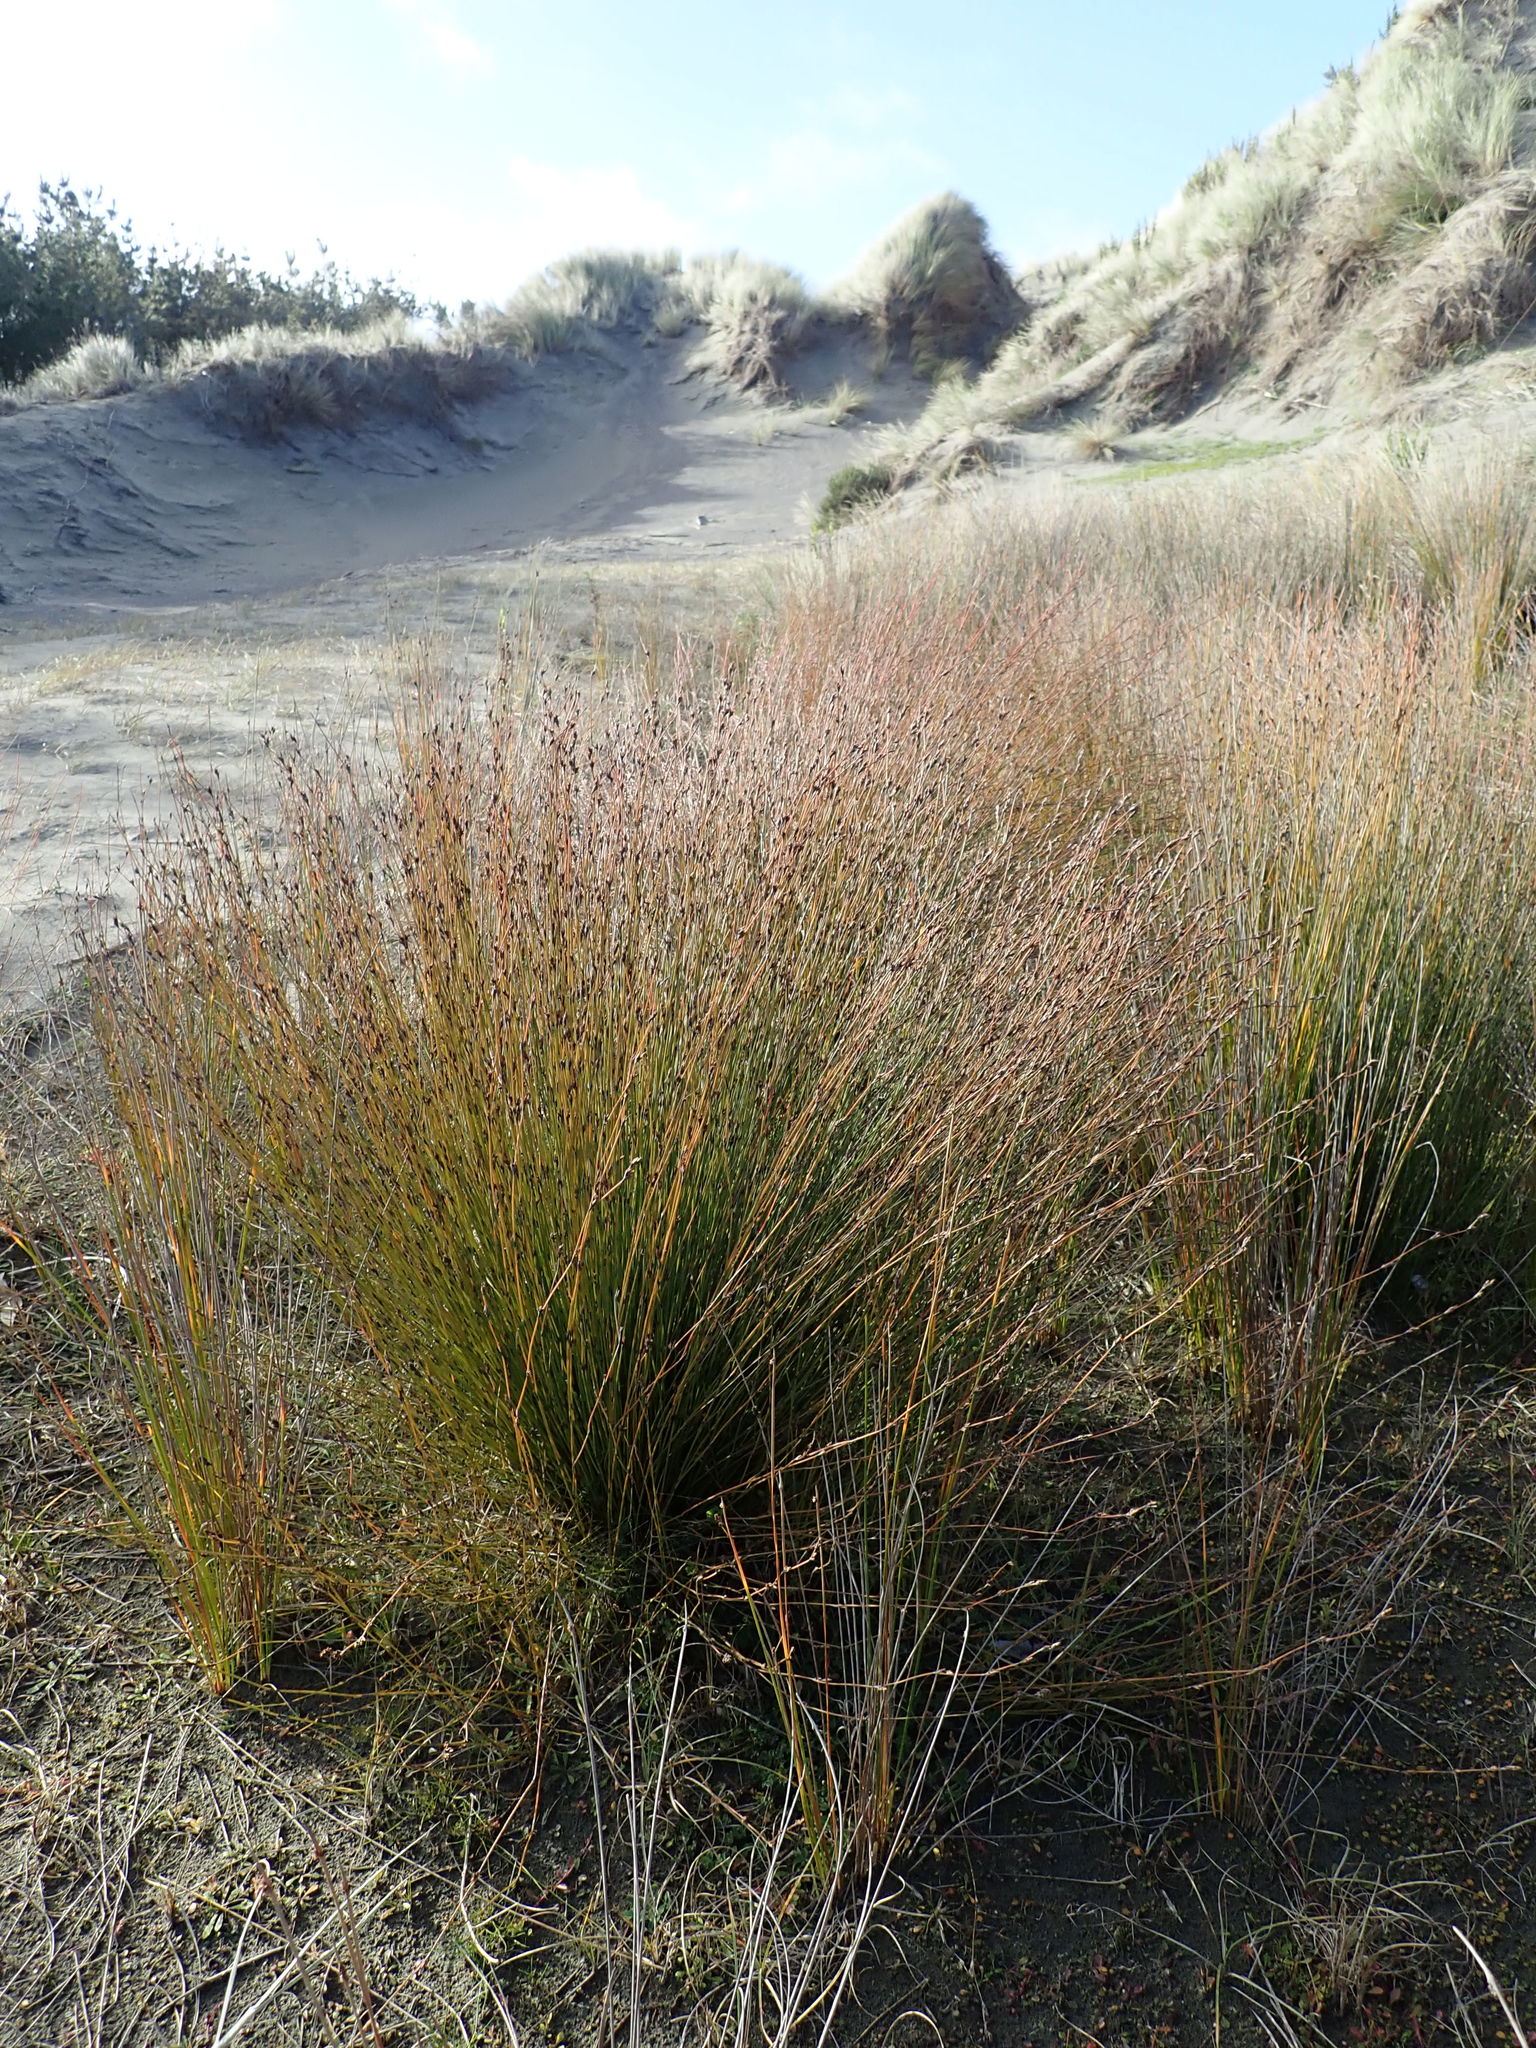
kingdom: Plantae
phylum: Tracheophyta
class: Liliopsida
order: Poales
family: Restionaceae
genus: Apodasmia
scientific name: Apodasmia similis
